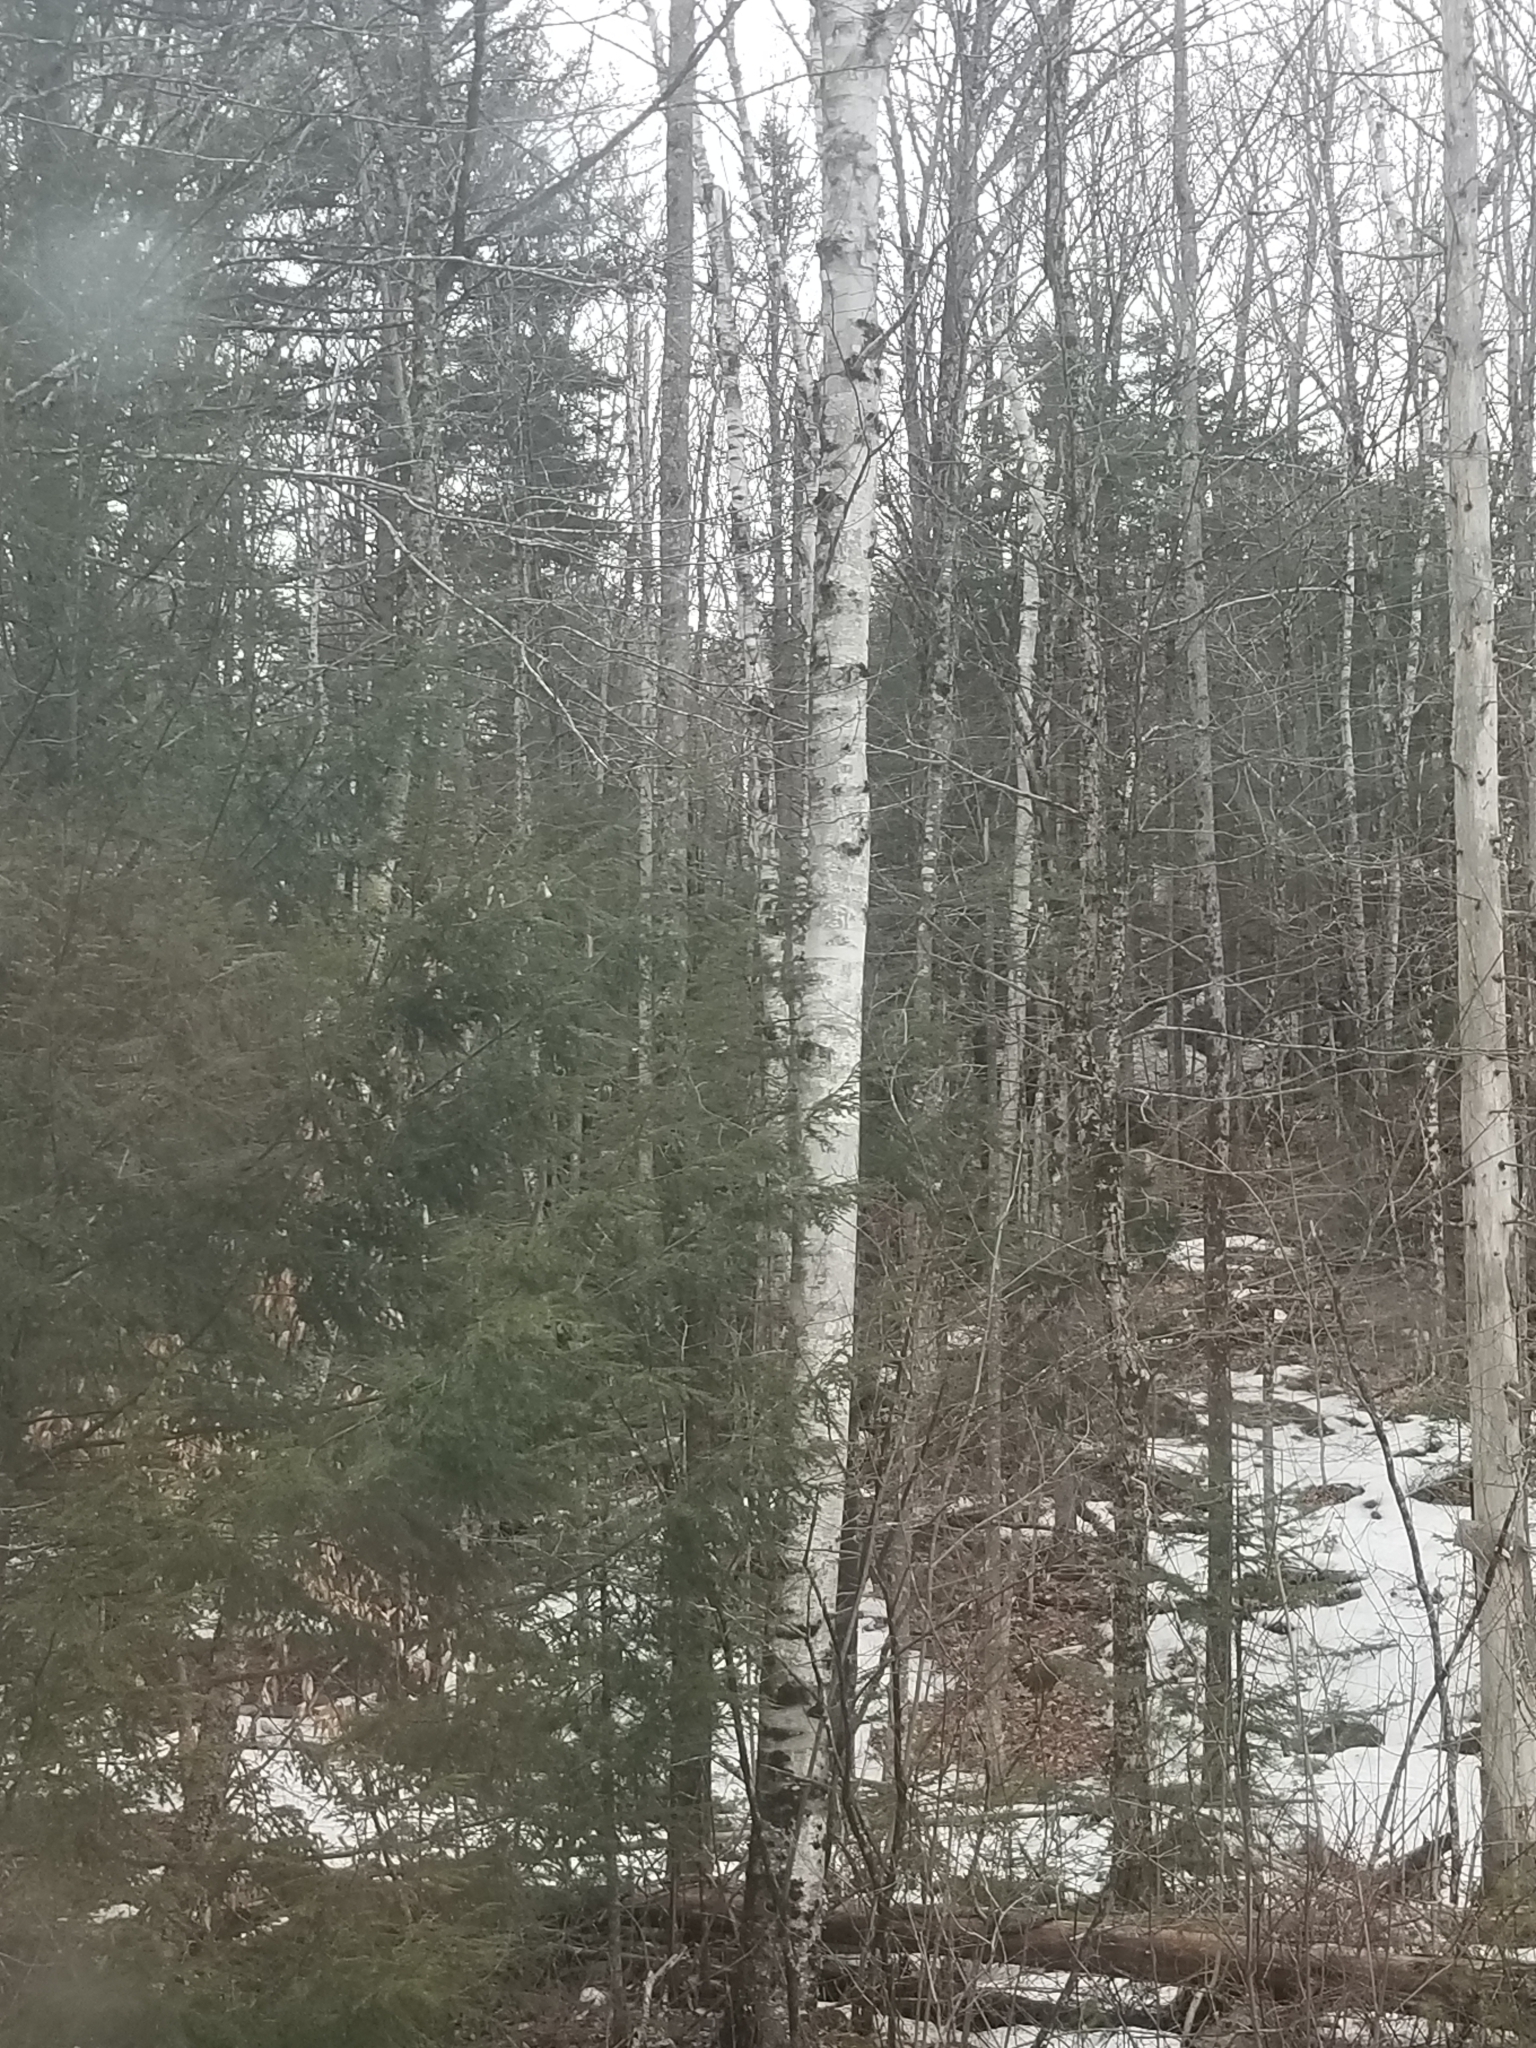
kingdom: Plantae
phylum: Tracheophyta
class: Magnoliopsida
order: Fagales
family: Betulaceae
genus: Betula
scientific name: Betula papyrifera
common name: Paper birch
